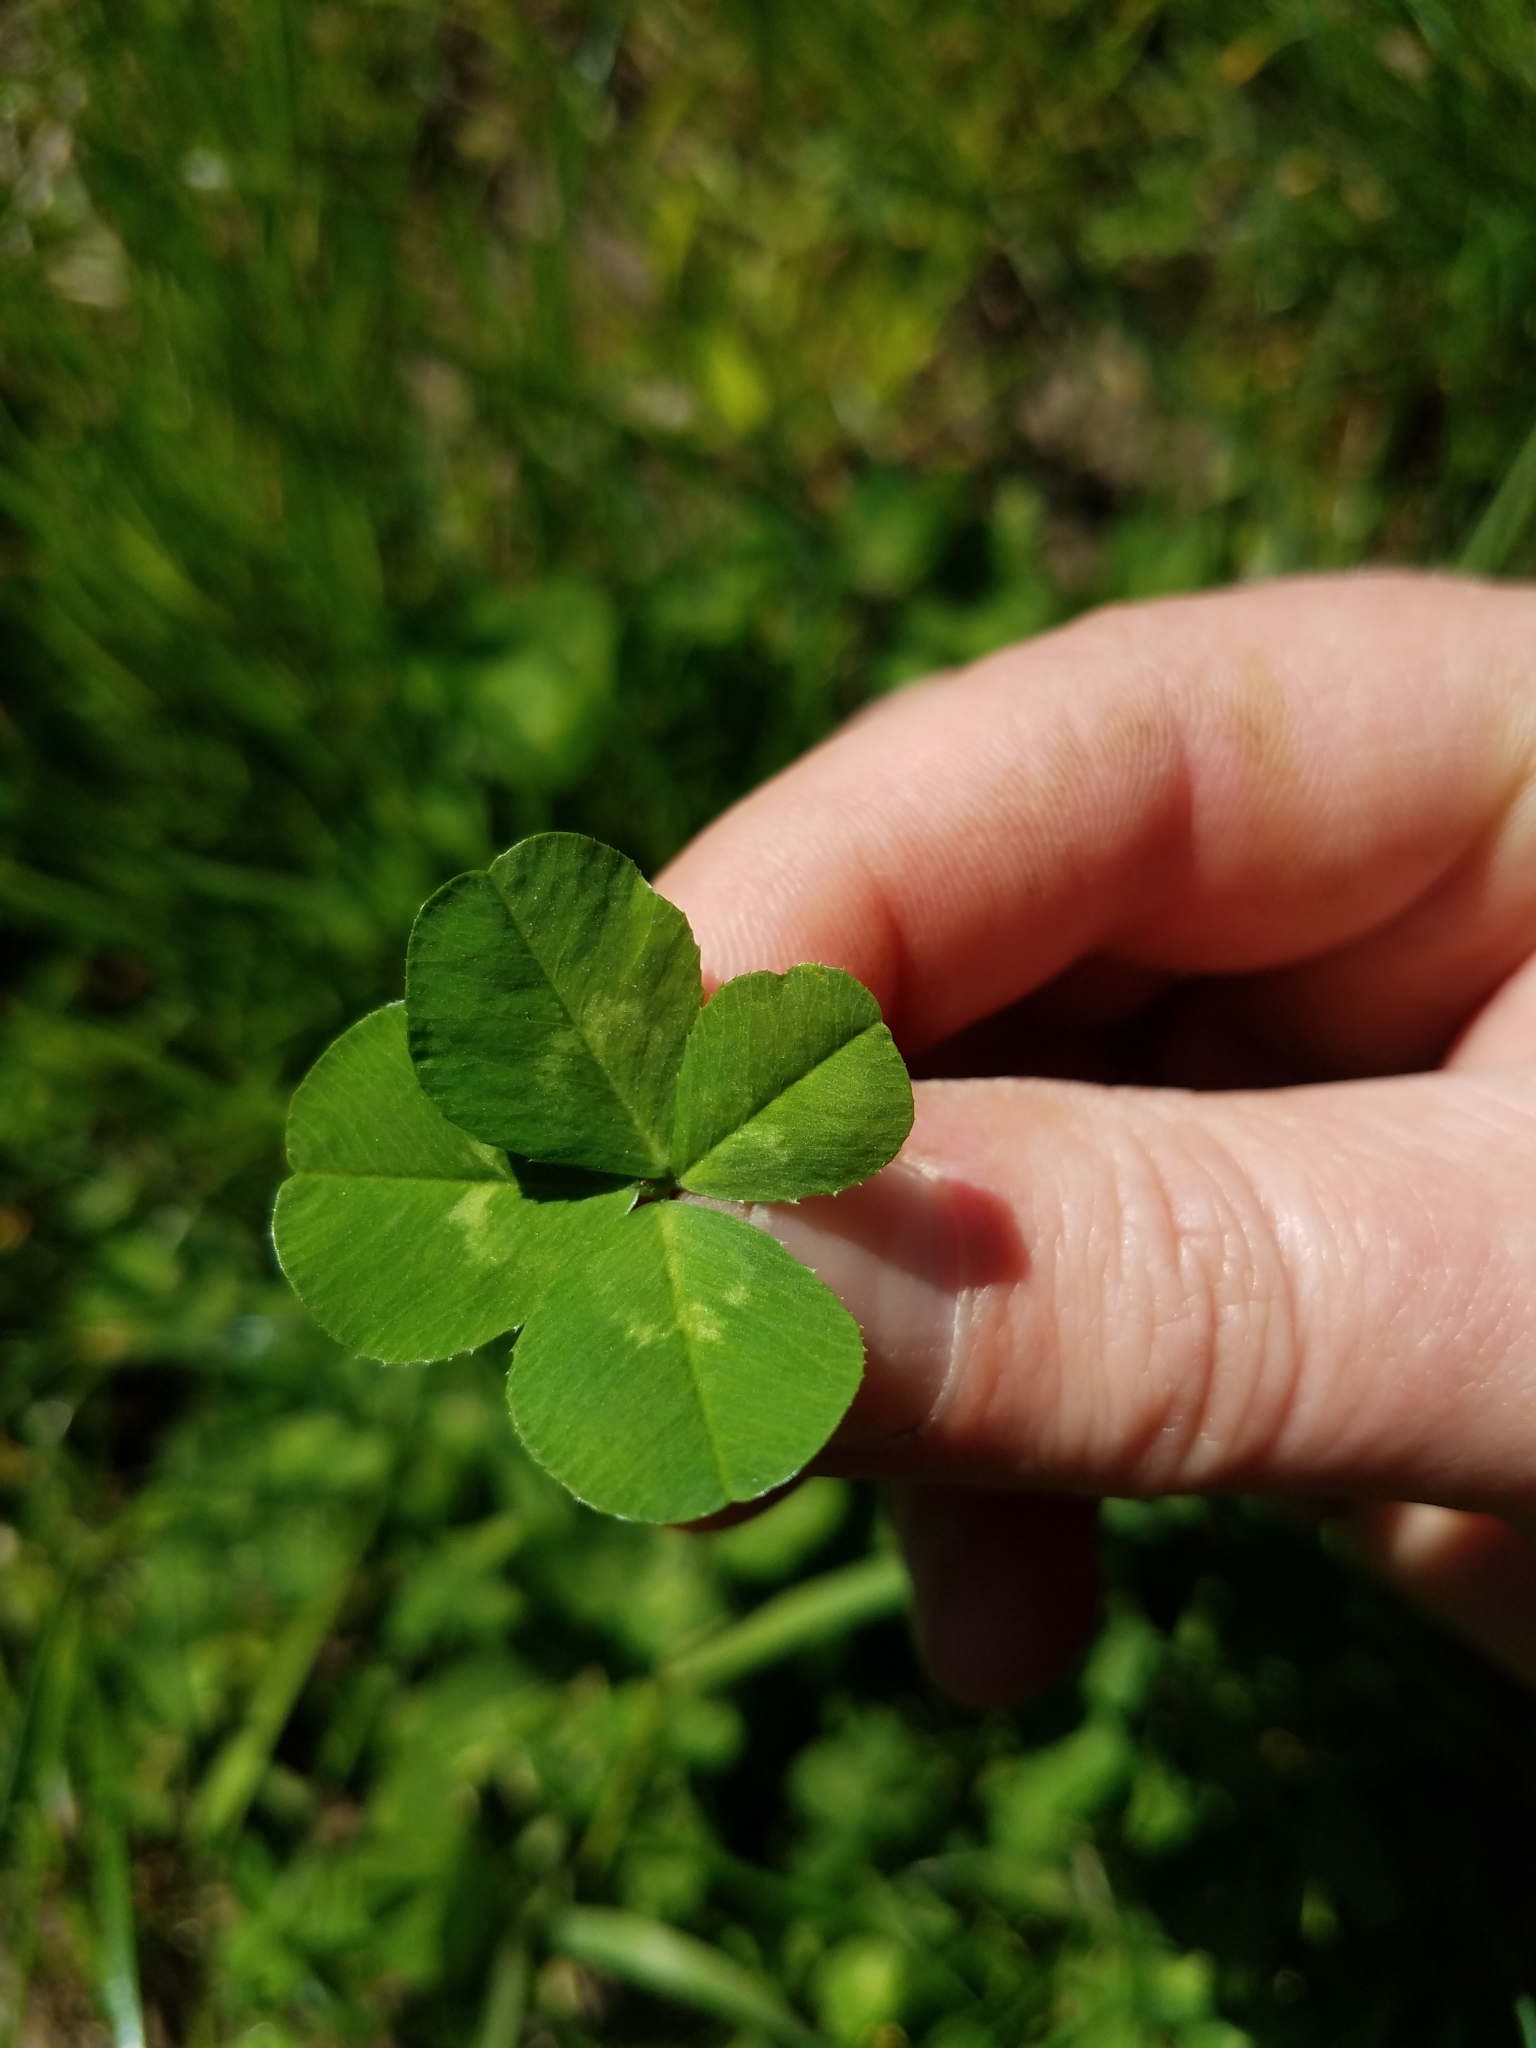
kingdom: Plantae
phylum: Tracheophyta
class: Magnoliopsida
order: Fabales
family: Fabaceae
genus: Trifolium
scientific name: Trifolium repens
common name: White clover
